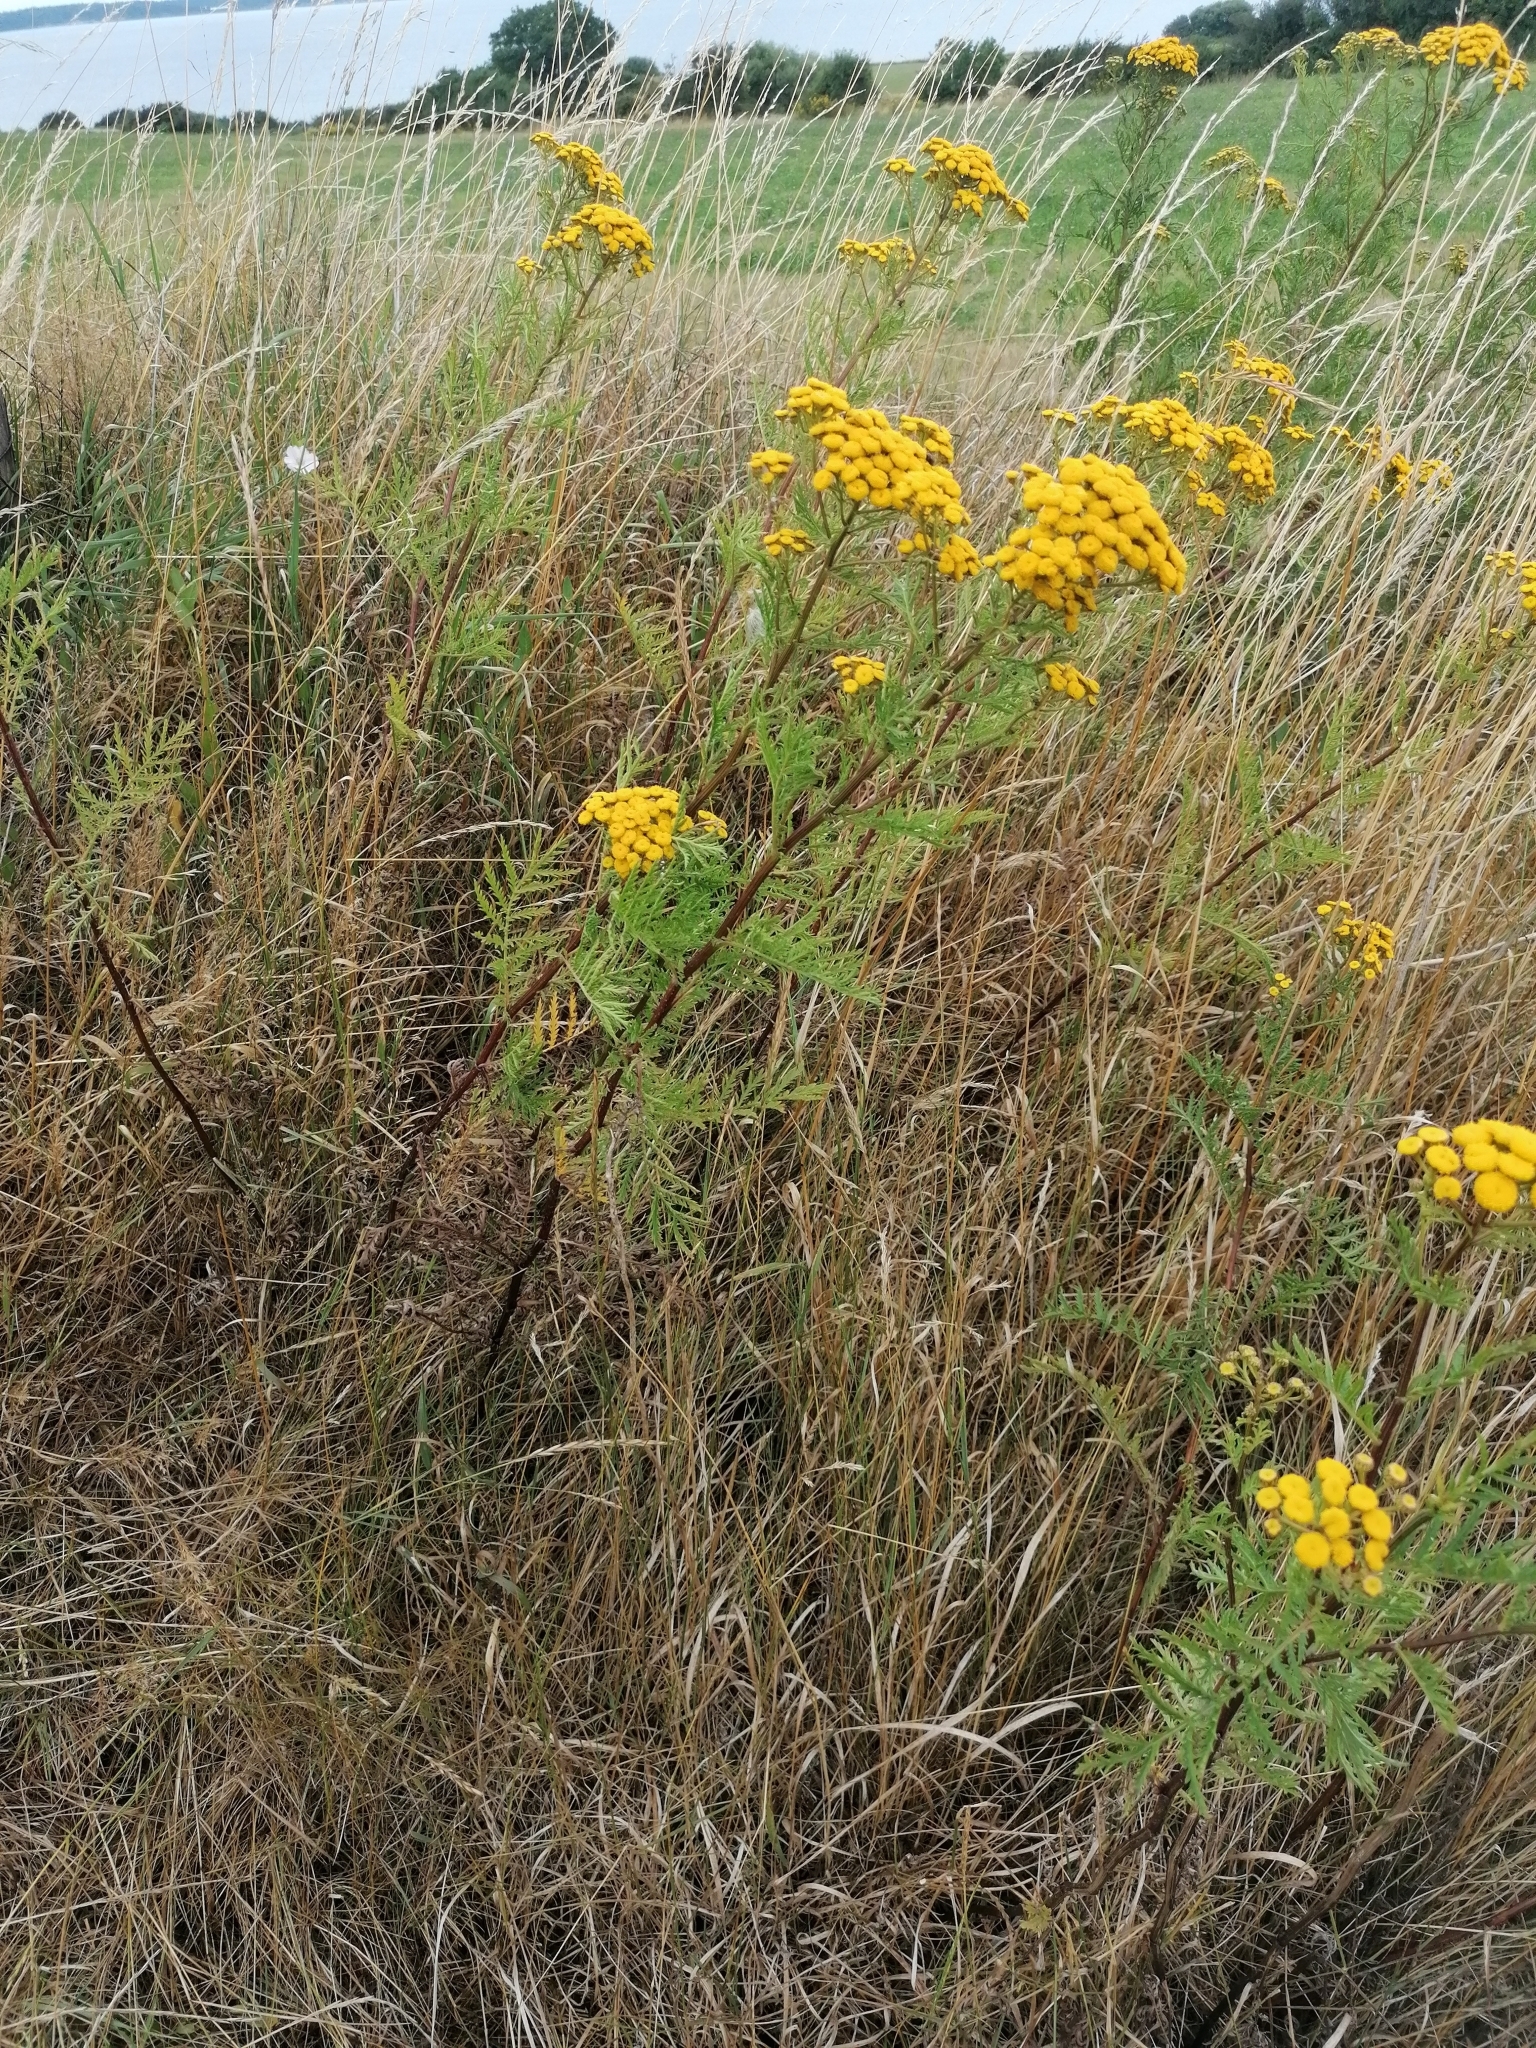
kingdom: Plantae
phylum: Tracheophyta
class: Magnoliopsida
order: Asterales
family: Asteraceae
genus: Tanacetum
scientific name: Tanacetum vulgare
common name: Common tansy
